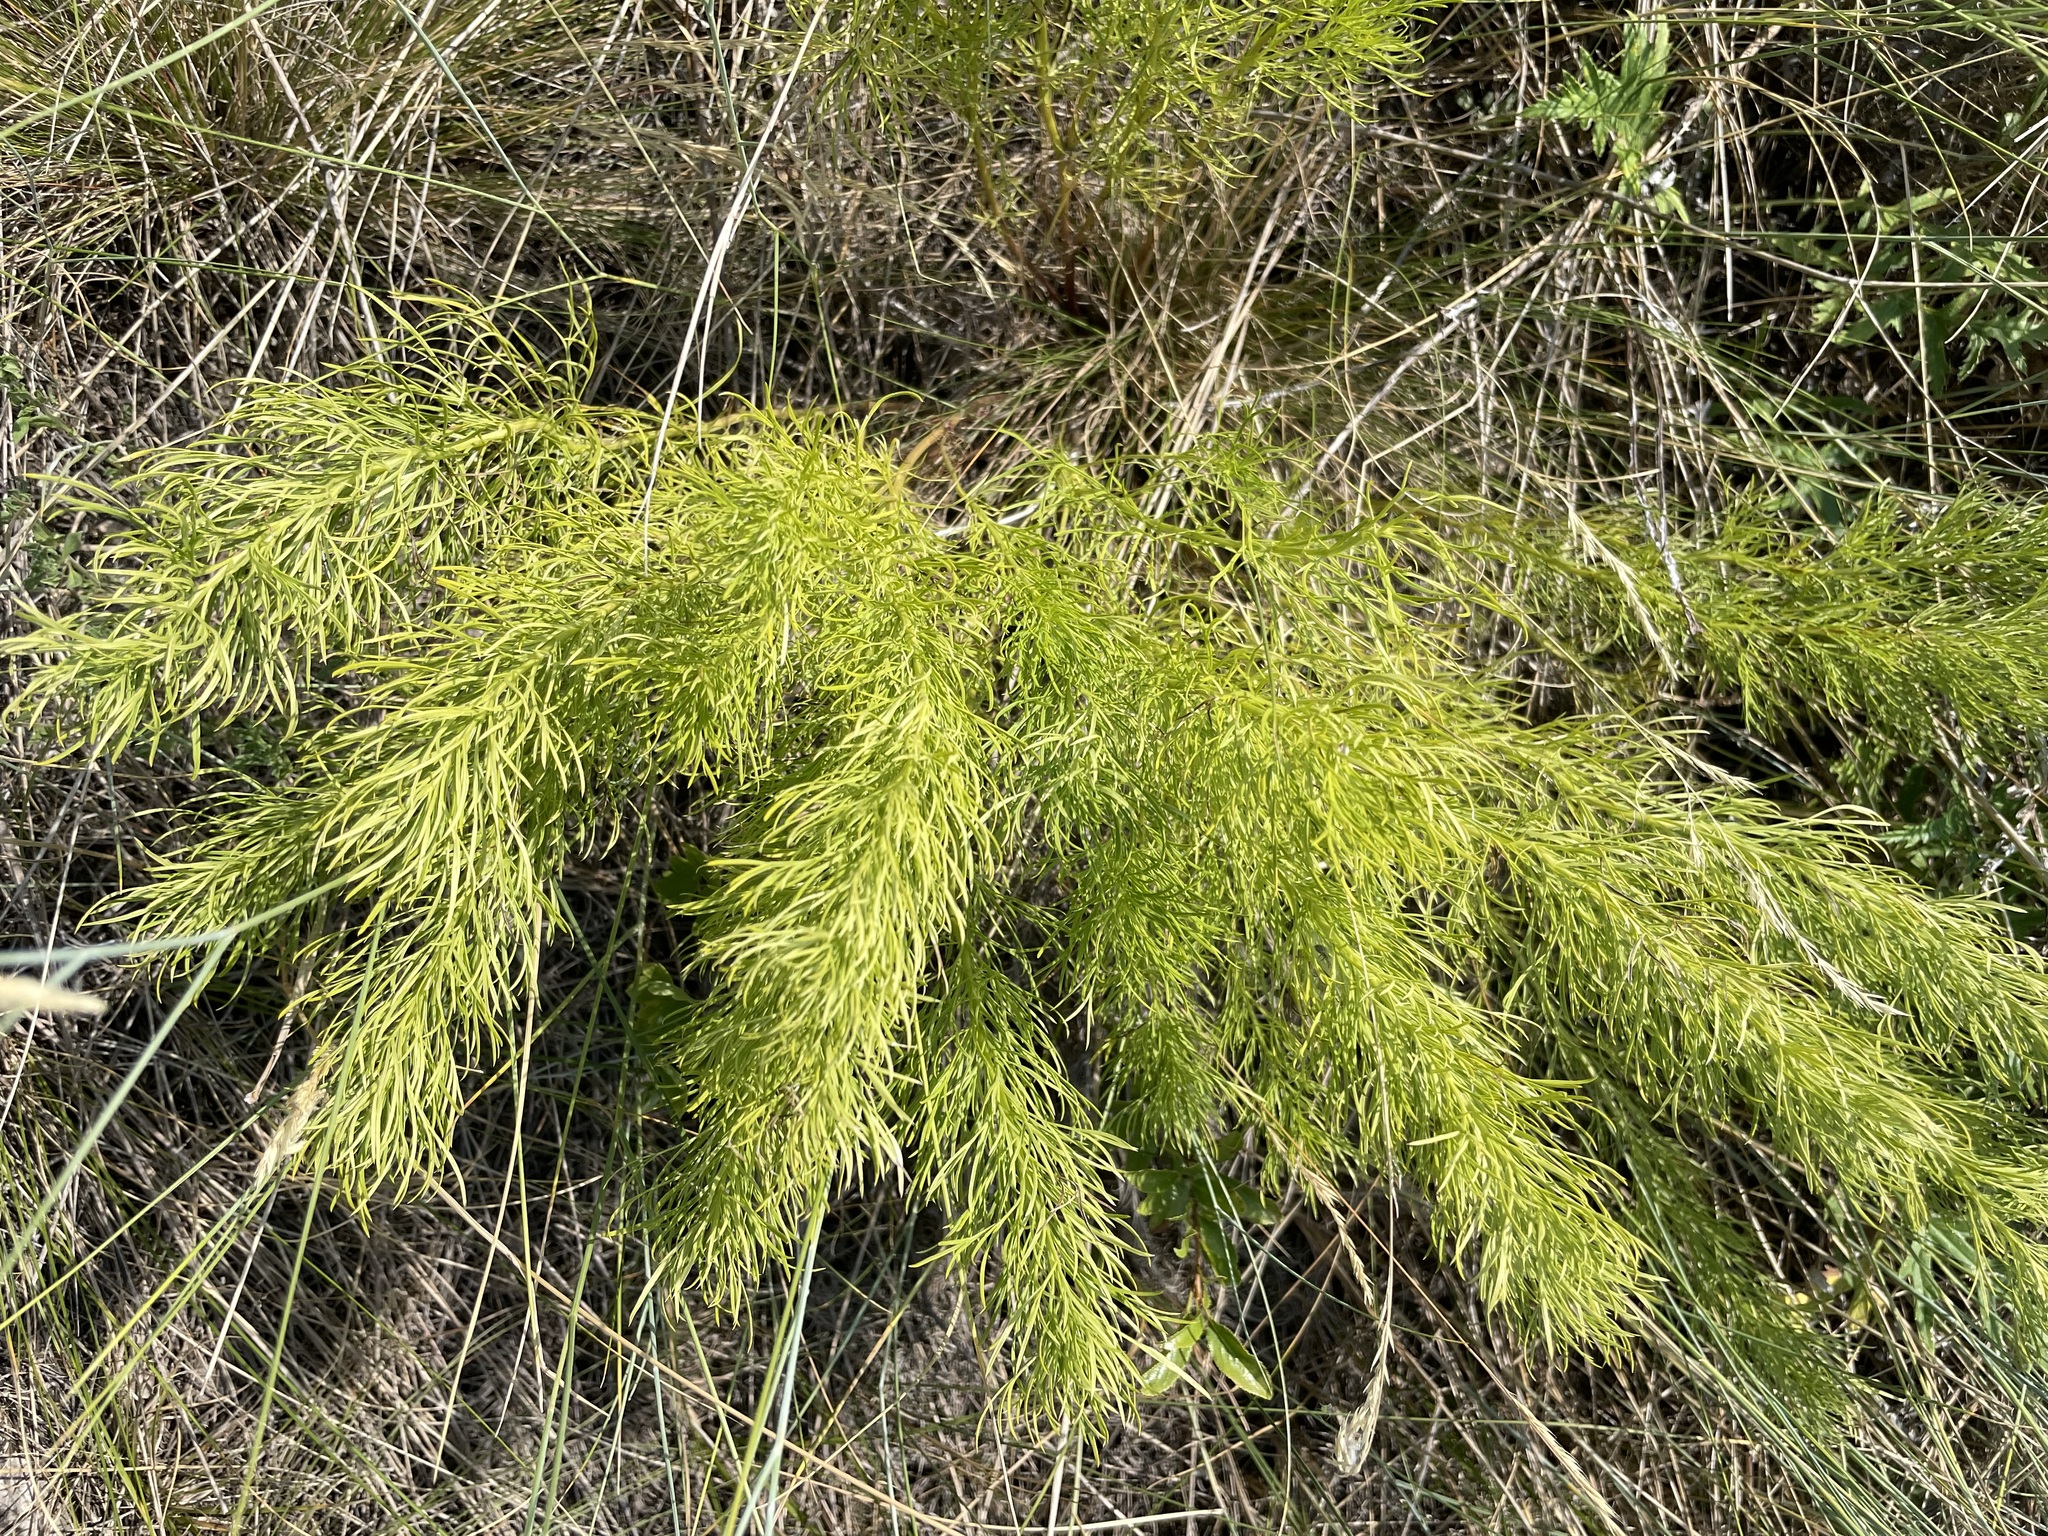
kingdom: Plantae
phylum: Tracheophyta
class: Magnoliopsida
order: Ranunculales
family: Ranunculaceae
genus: Adonis
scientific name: Adonis vernalis
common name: Yellow pheasants-eye
